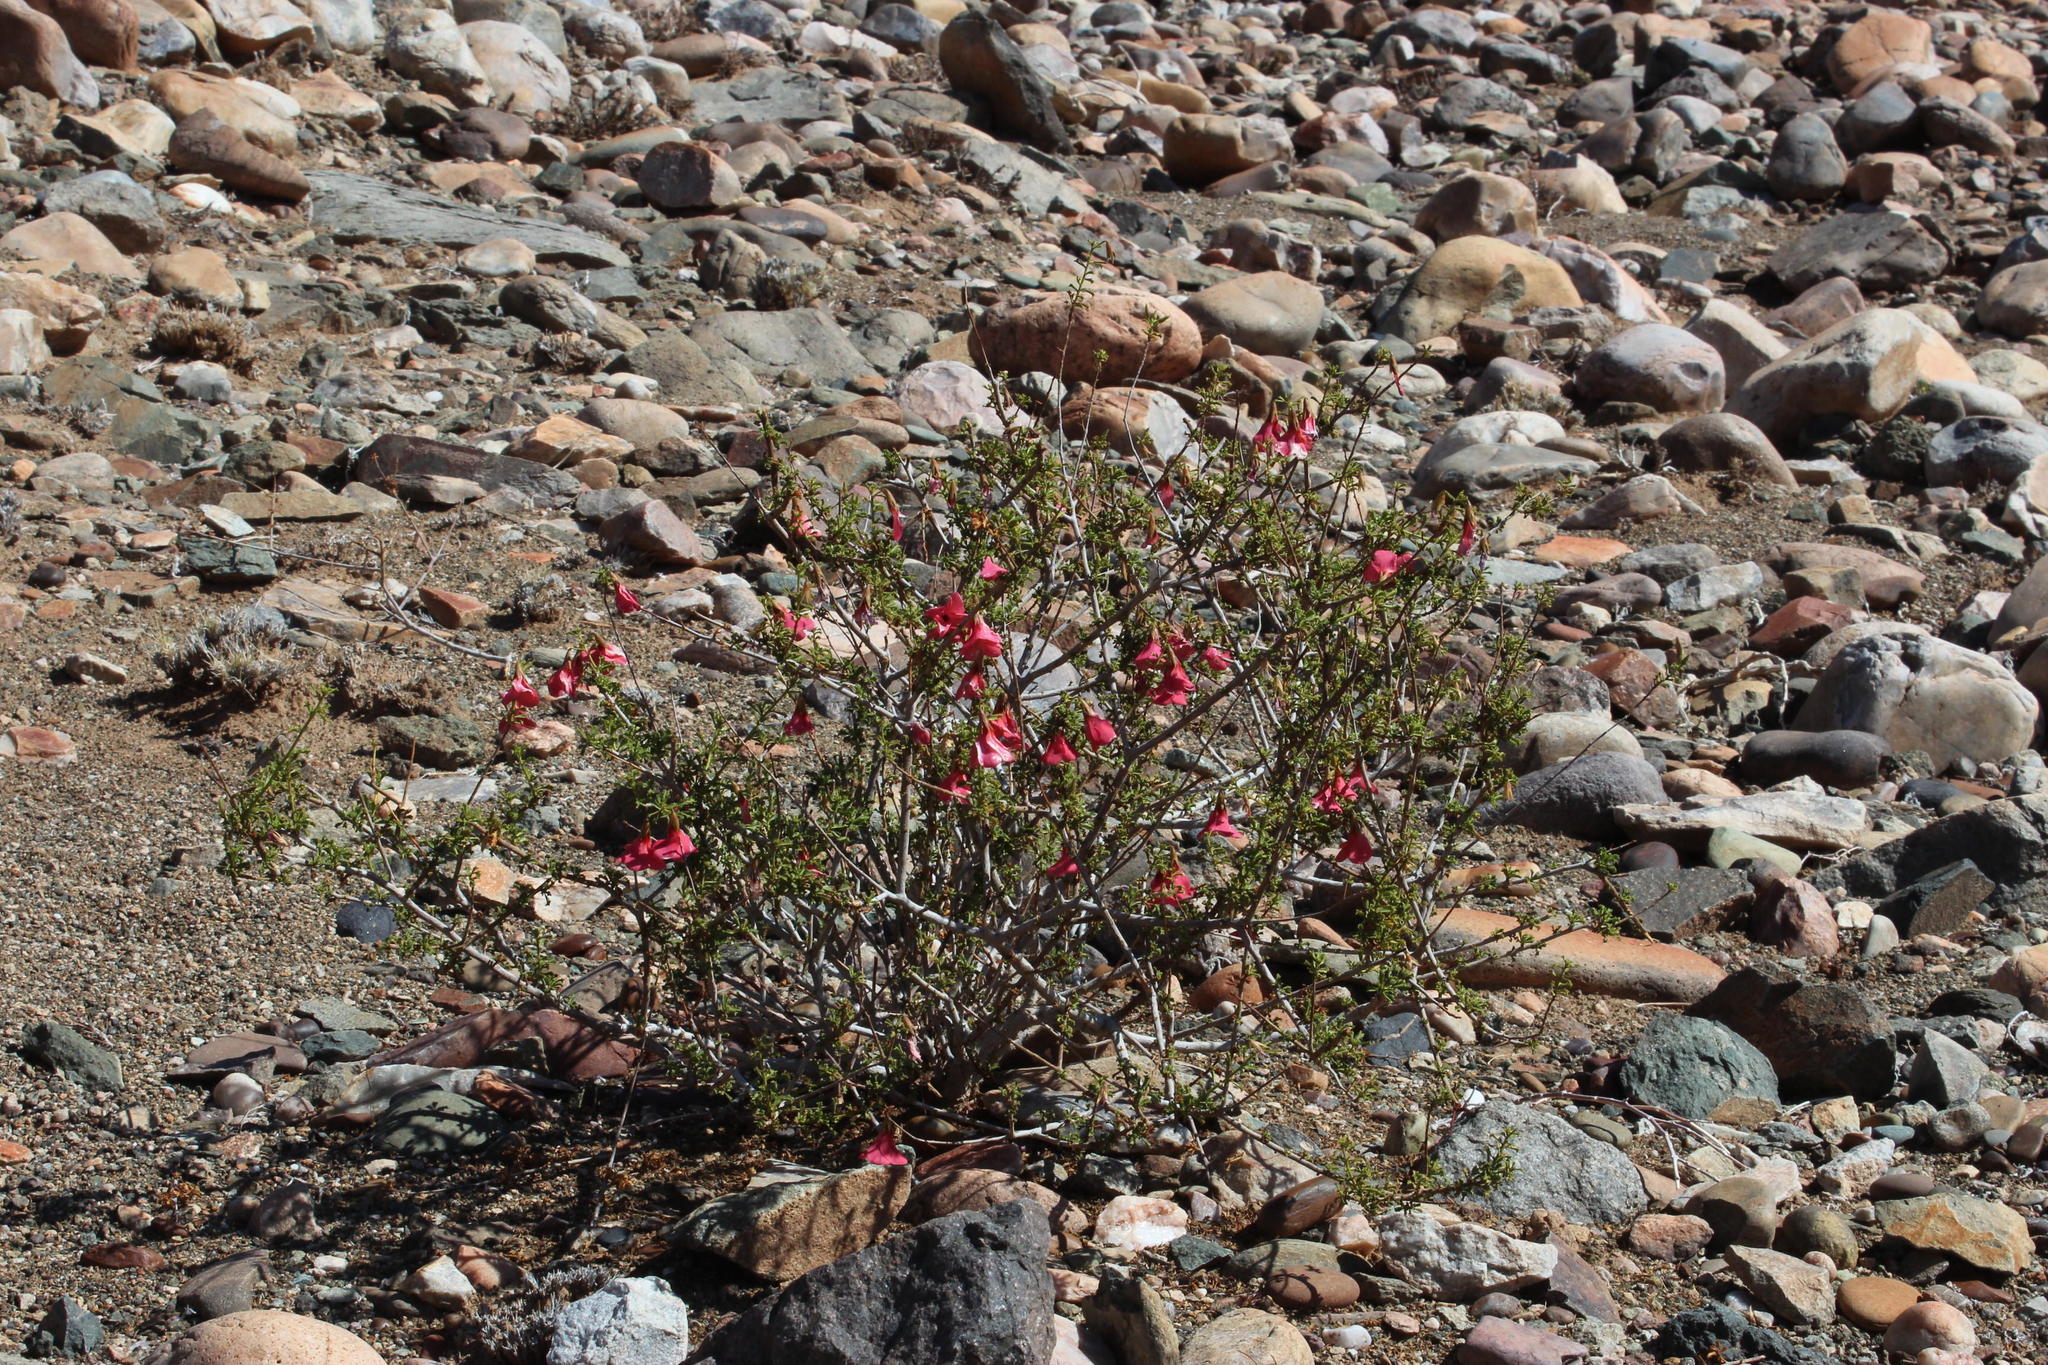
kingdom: Plantae
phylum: Tracheophyta
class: Magnoliopsida
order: Malvales
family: Malvaceae
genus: Hermannia
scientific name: Hermannia stricta
